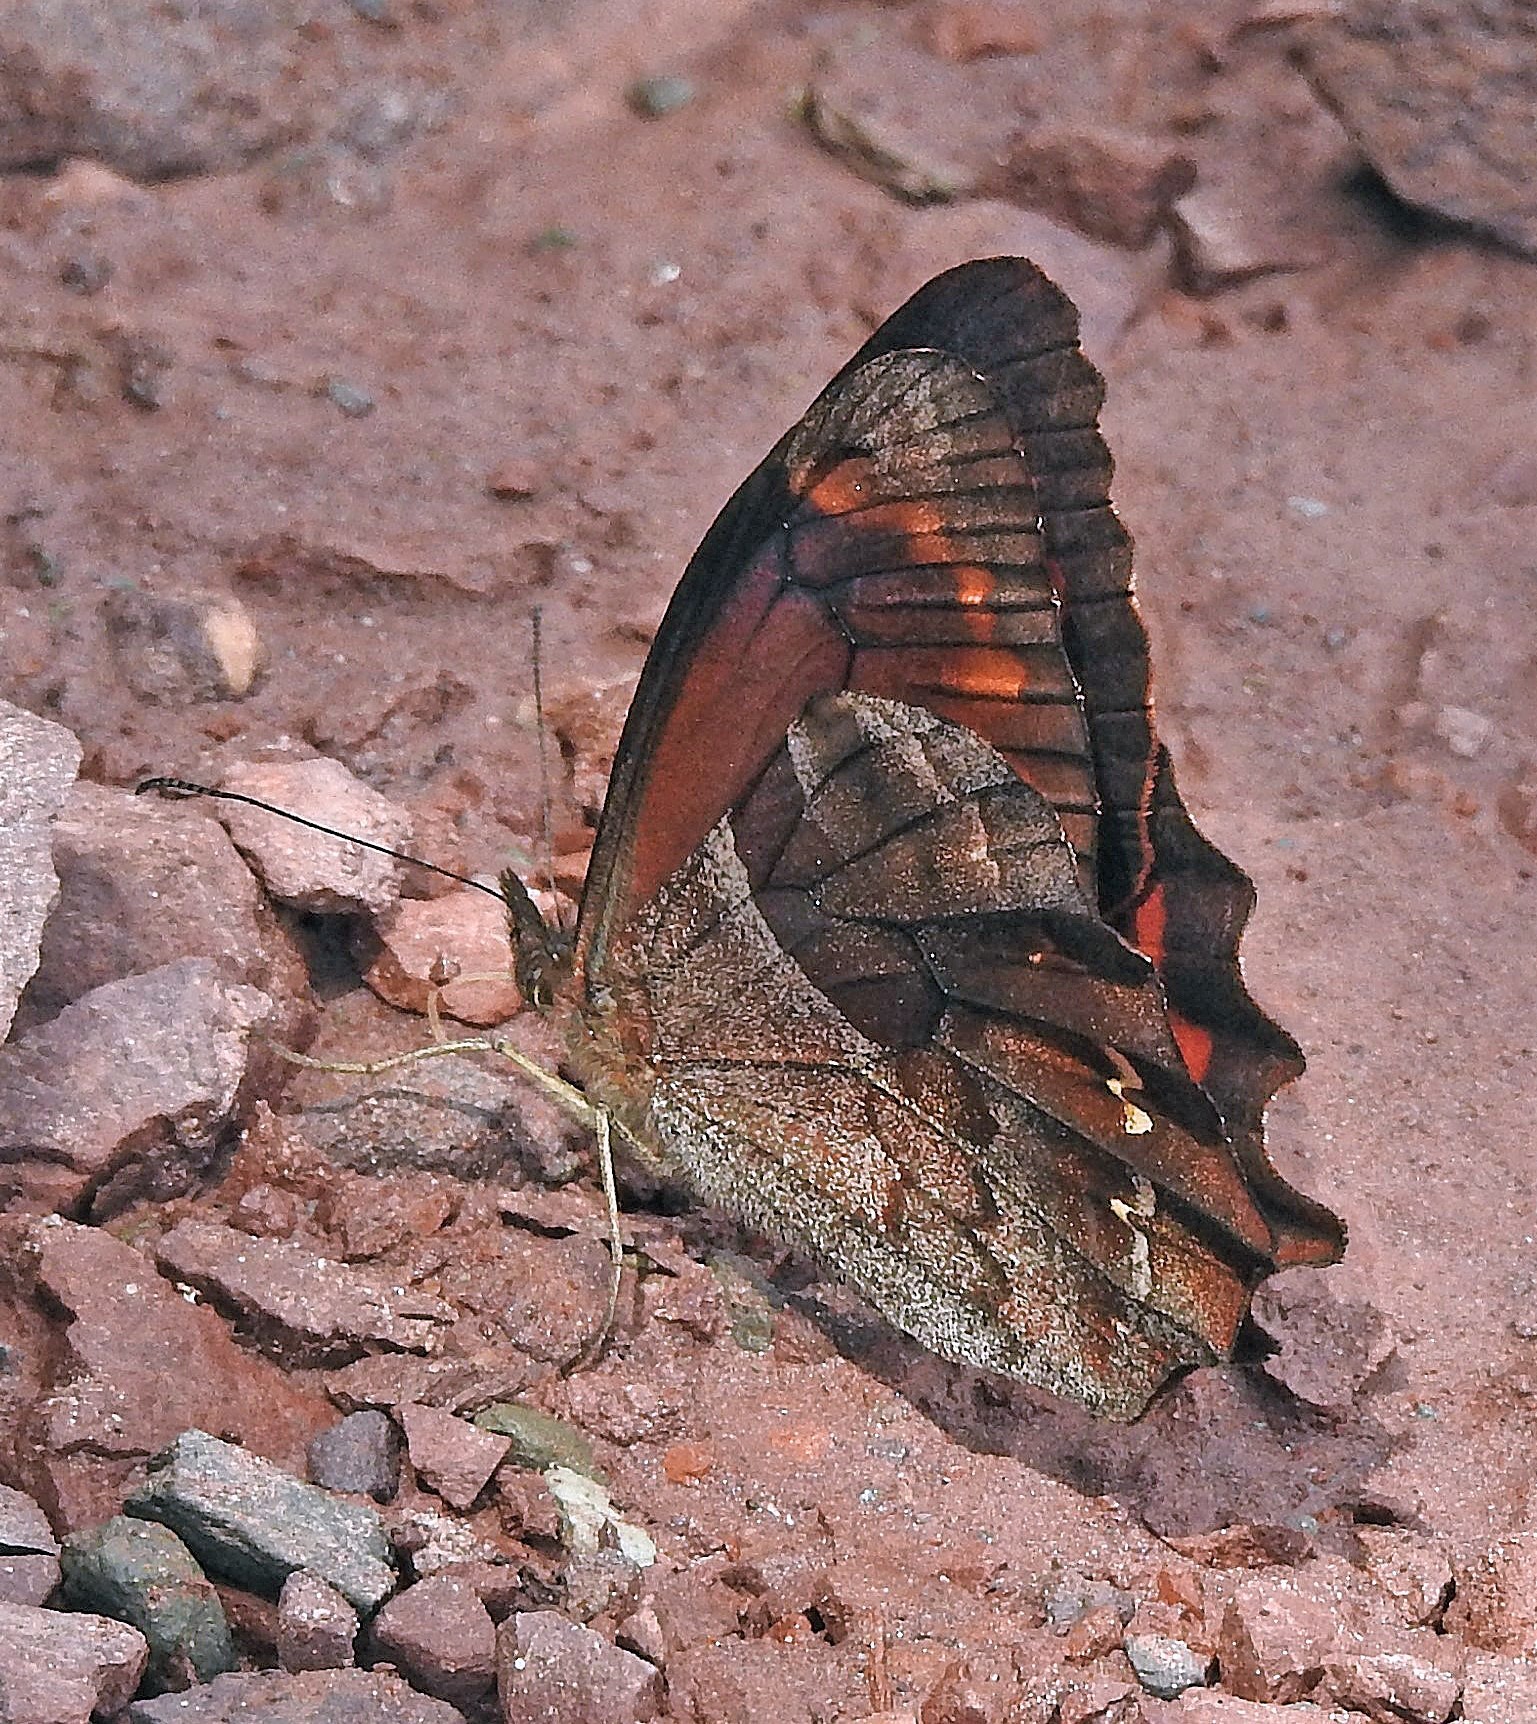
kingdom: Animalia
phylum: Arthropoda
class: Insecta
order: Lepidoptera
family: Nymphalidae
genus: Lasiophila
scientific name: Lasiophila orbifera
